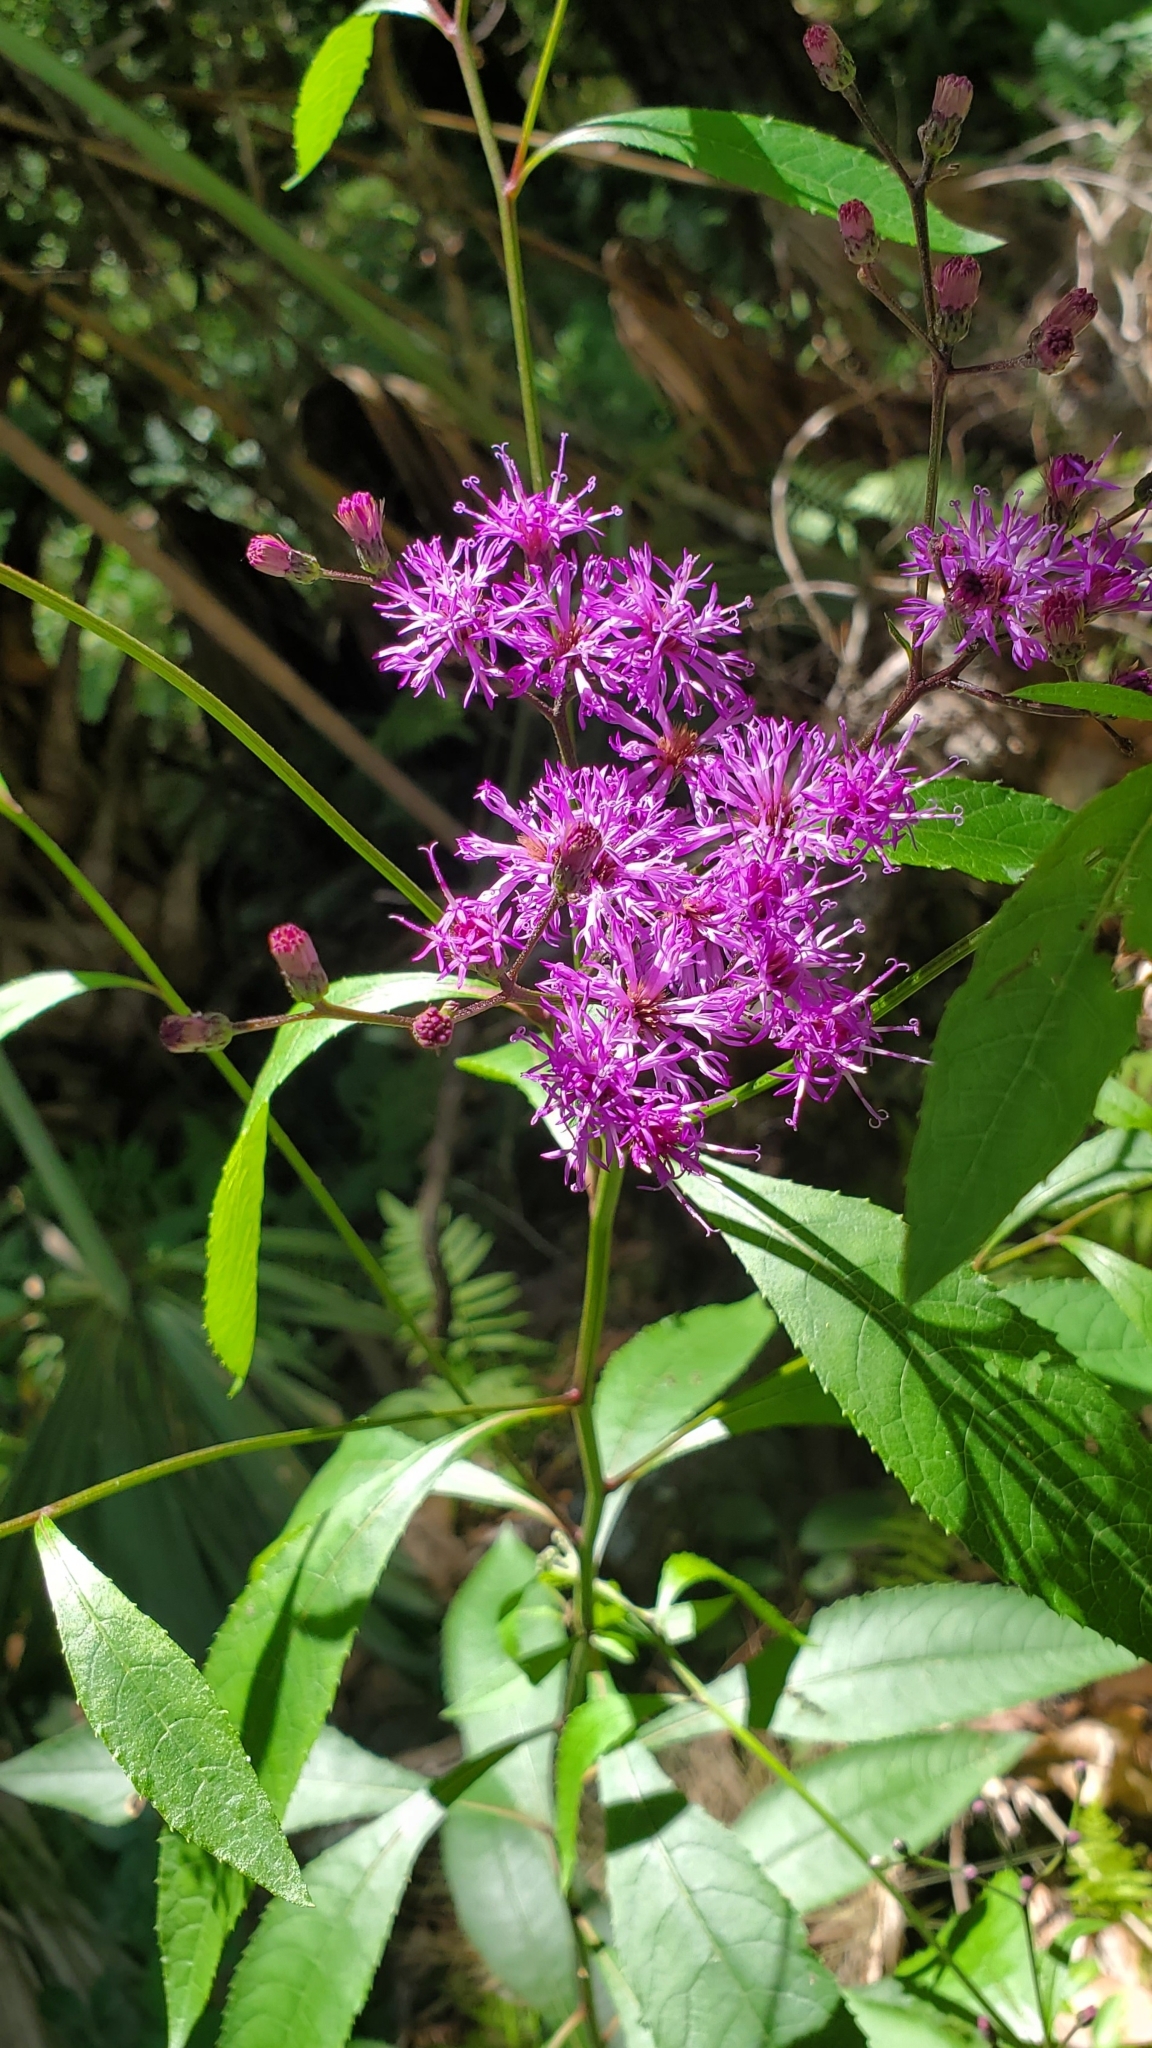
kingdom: Plantae
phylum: Tracheophyta
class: Magnoliopsida
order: Asterales
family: Asteraceae
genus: Vernonia
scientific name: Vernonia gigantea
